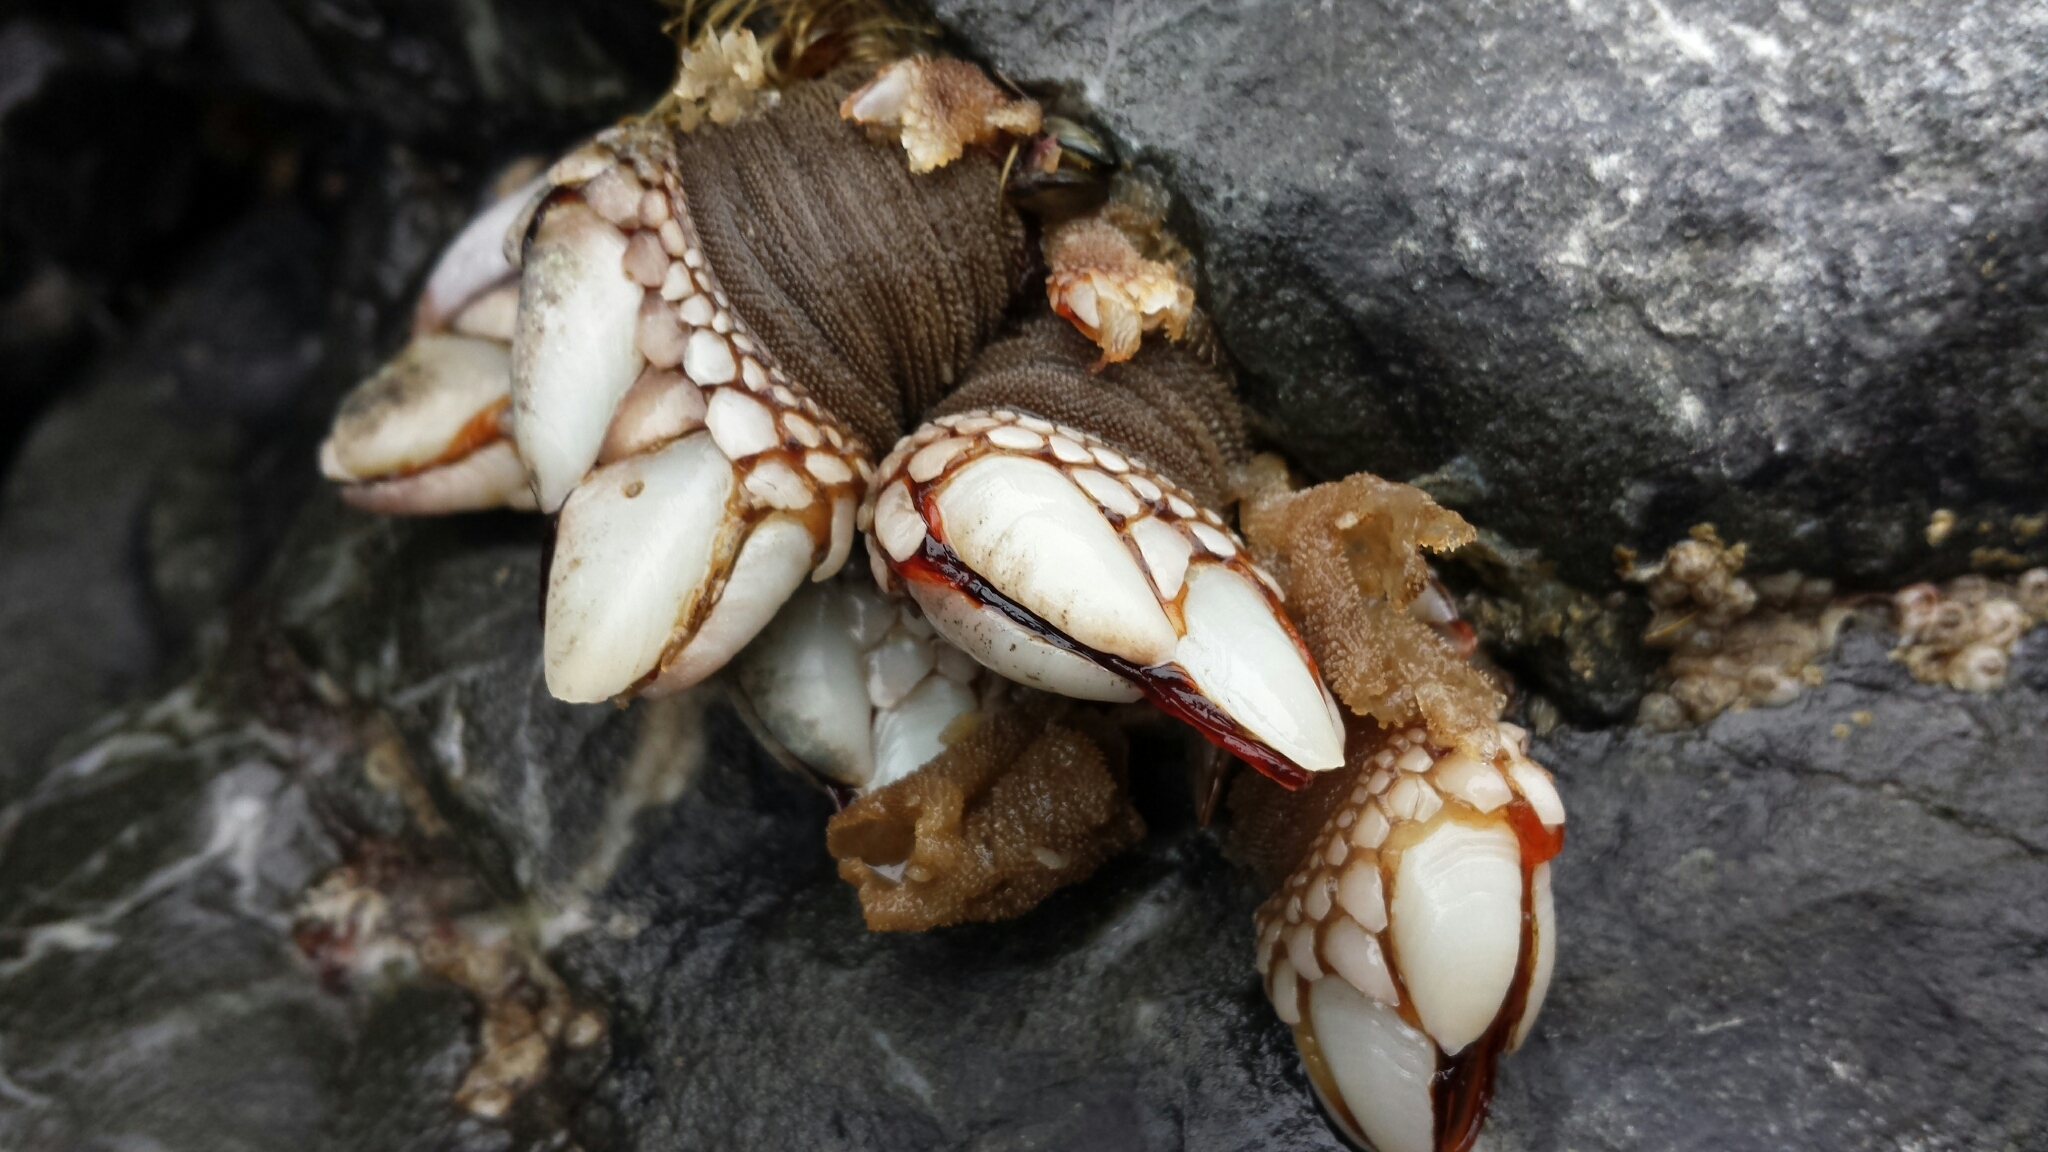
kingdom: Animalia
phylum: Arthropoda
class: Maxillopoda
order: Pedunculata
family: Pollicipedidae
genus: Pollicipes
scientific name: Pollicipes polymerus
